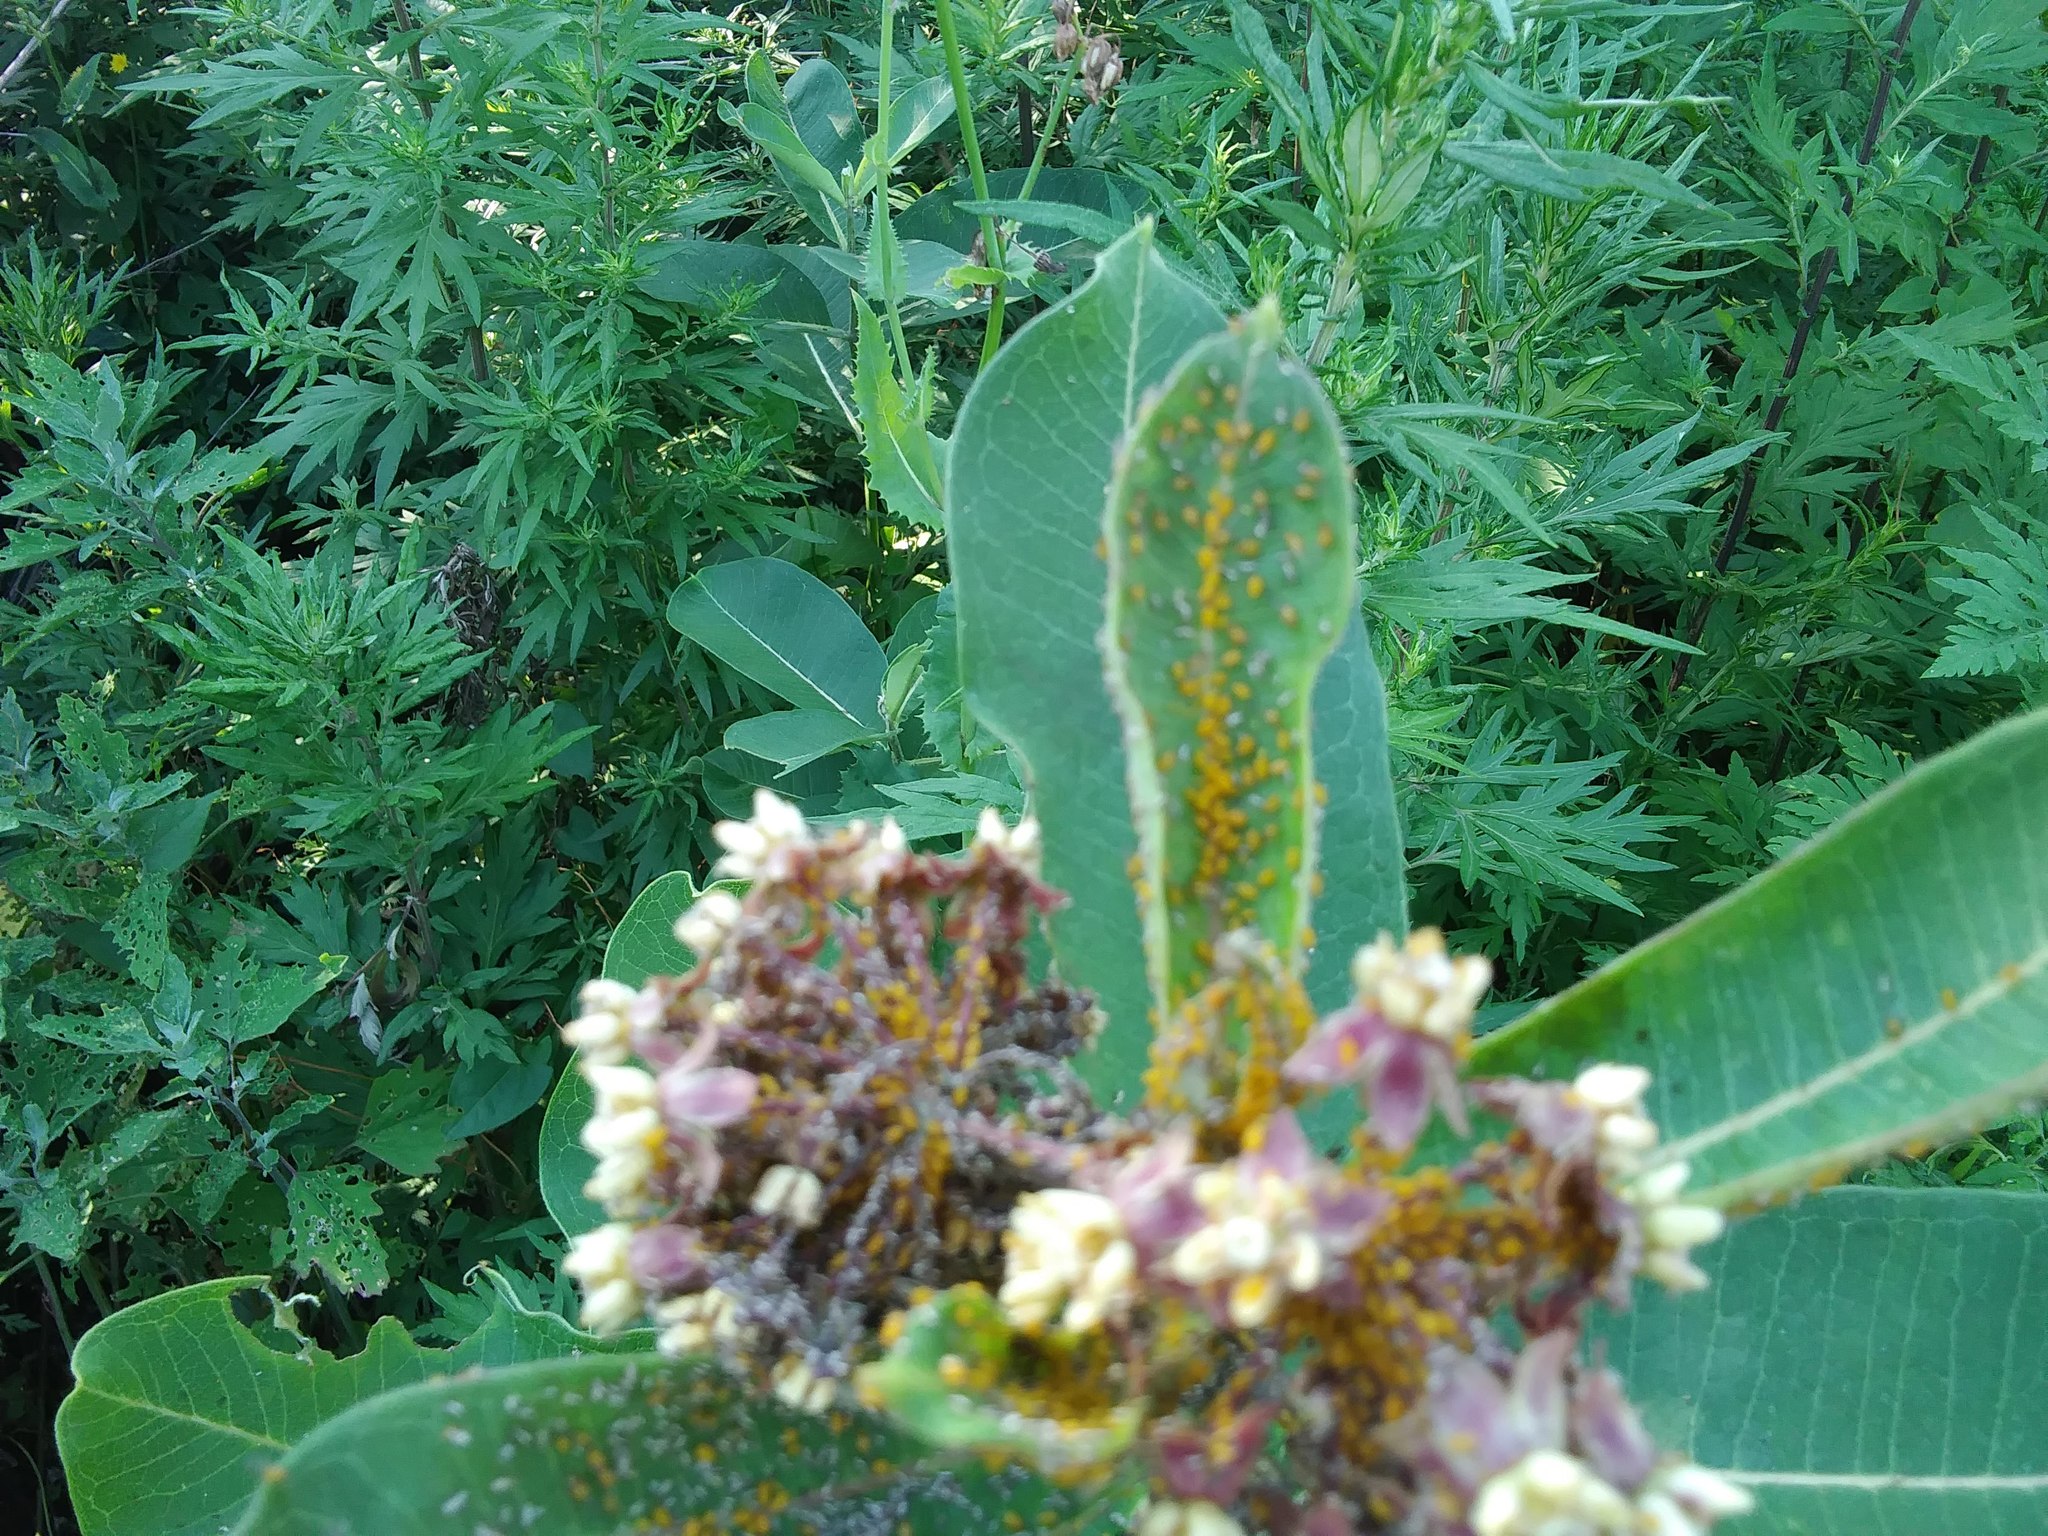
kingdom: Animalia
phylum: Arthropoda
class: Insecta
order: Hemiptera
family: Aphididae
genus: Aphis
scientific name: Aphis nerii
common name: Oleander aphid
